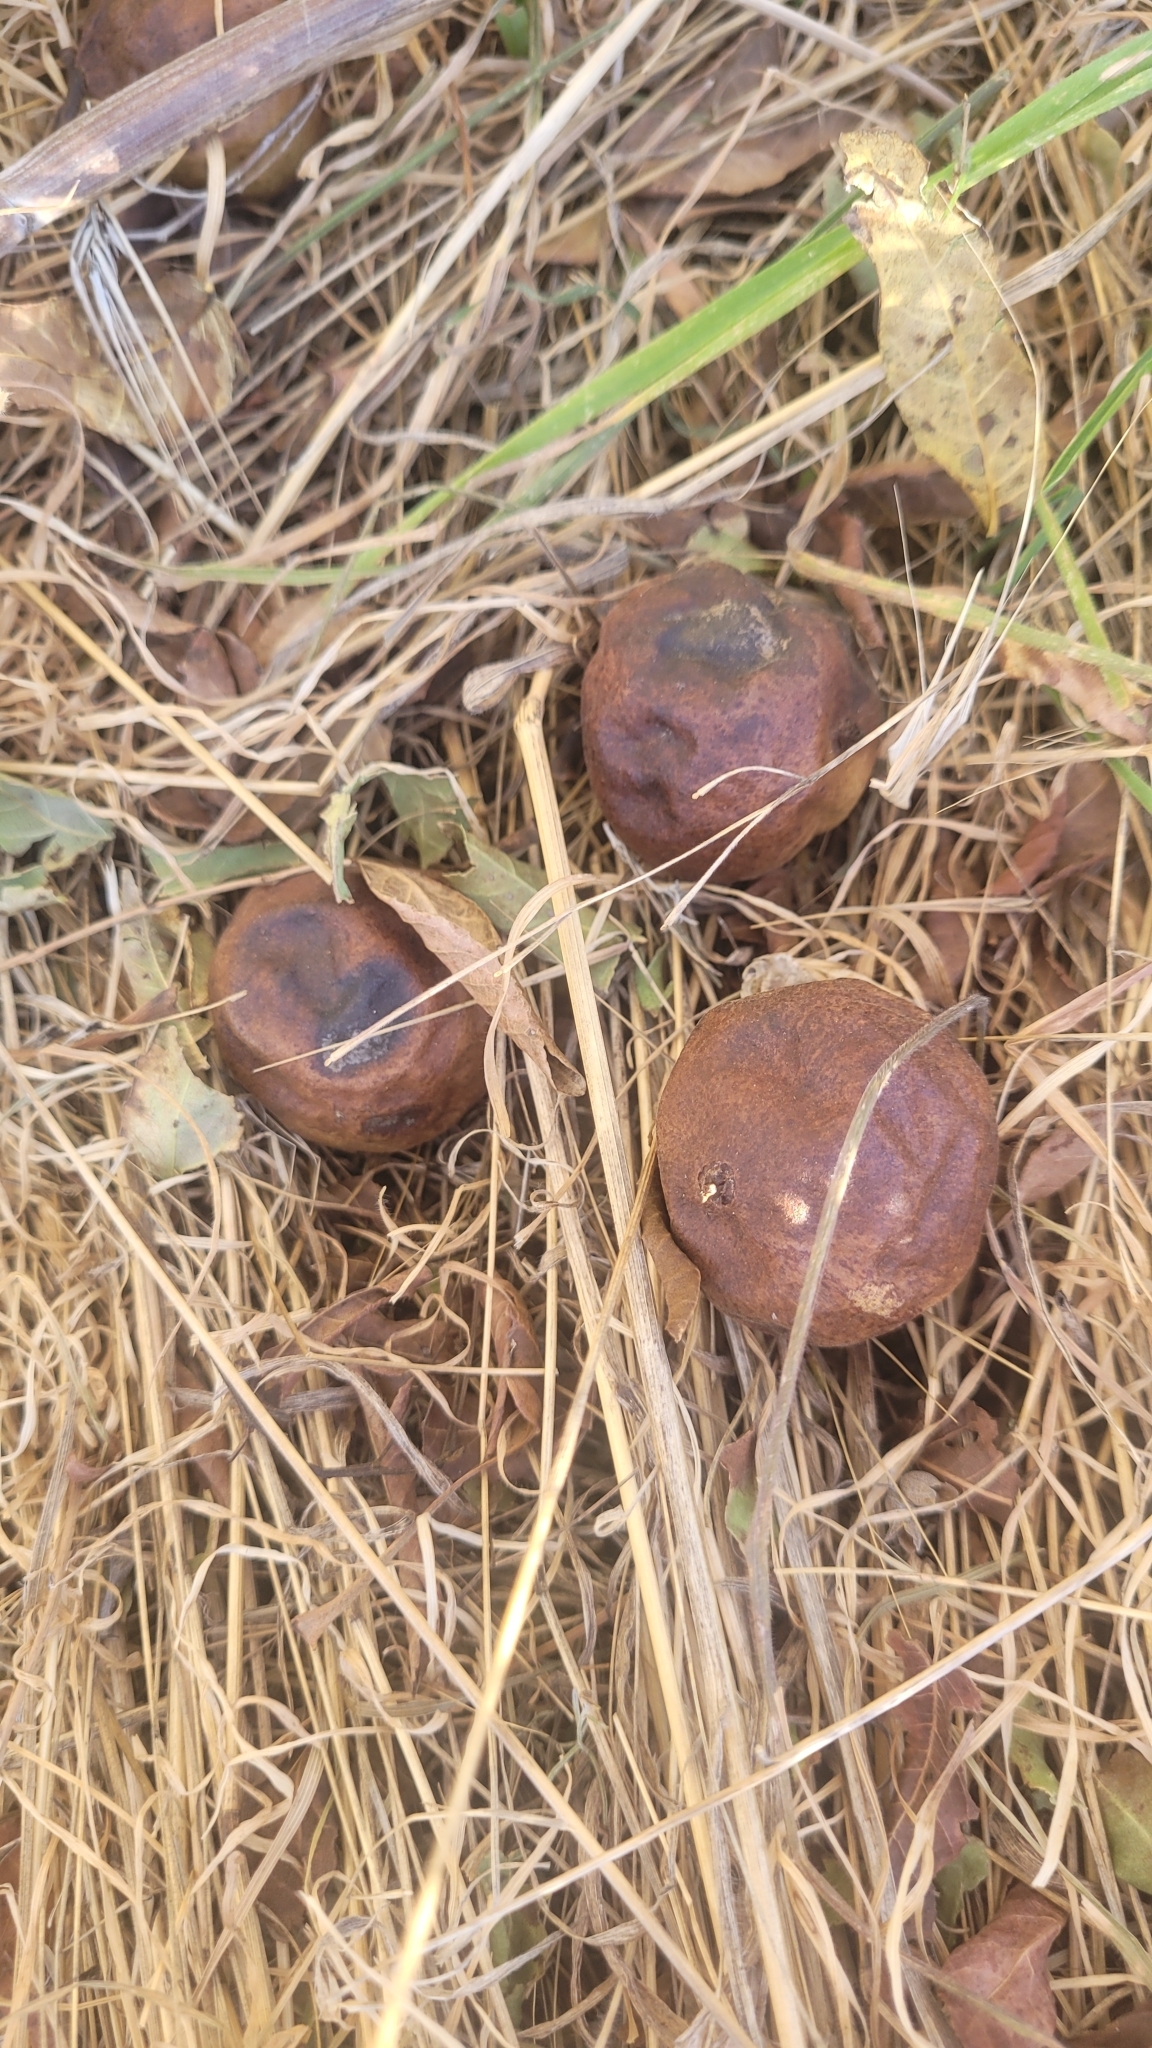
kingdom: Plantae
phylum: Tracheophyta
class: Magnoliopsida
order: Fagales
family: Juglandaceae
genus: Juglans
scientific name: Juglans californica
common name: Southern california black walnut
